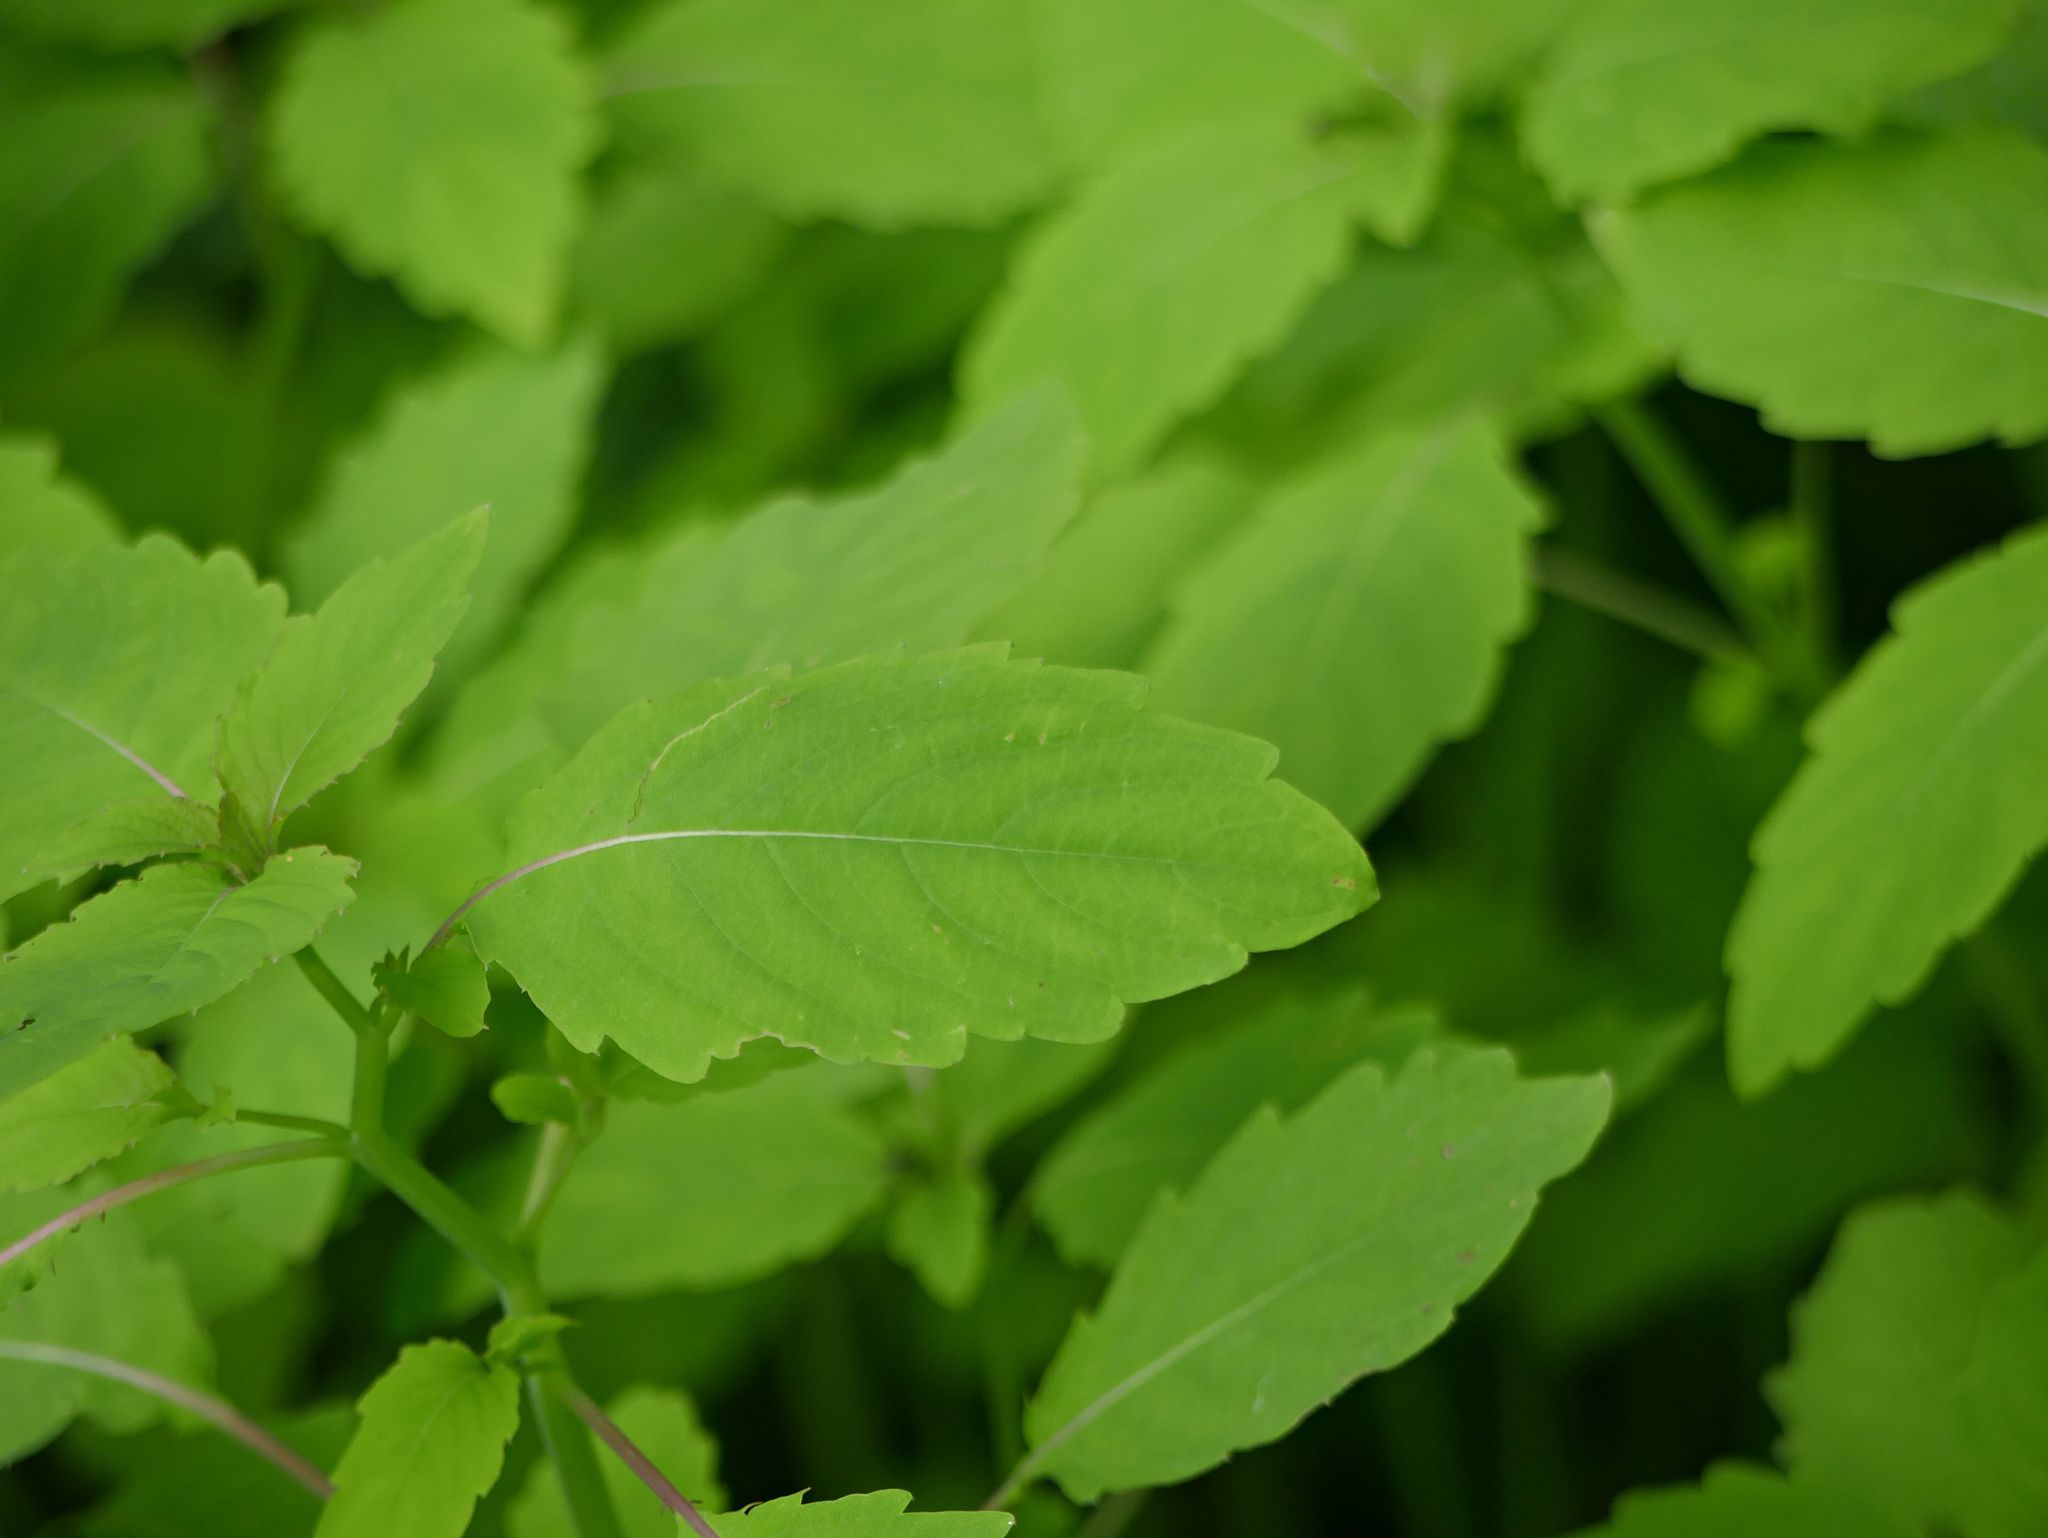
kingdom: Plantae
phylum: Tracheophyta
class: Magnoliopsida
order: Ericales
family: Balsaminaceae
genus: Impatiens
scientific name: Impatiens capensis
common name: Orange balsam
